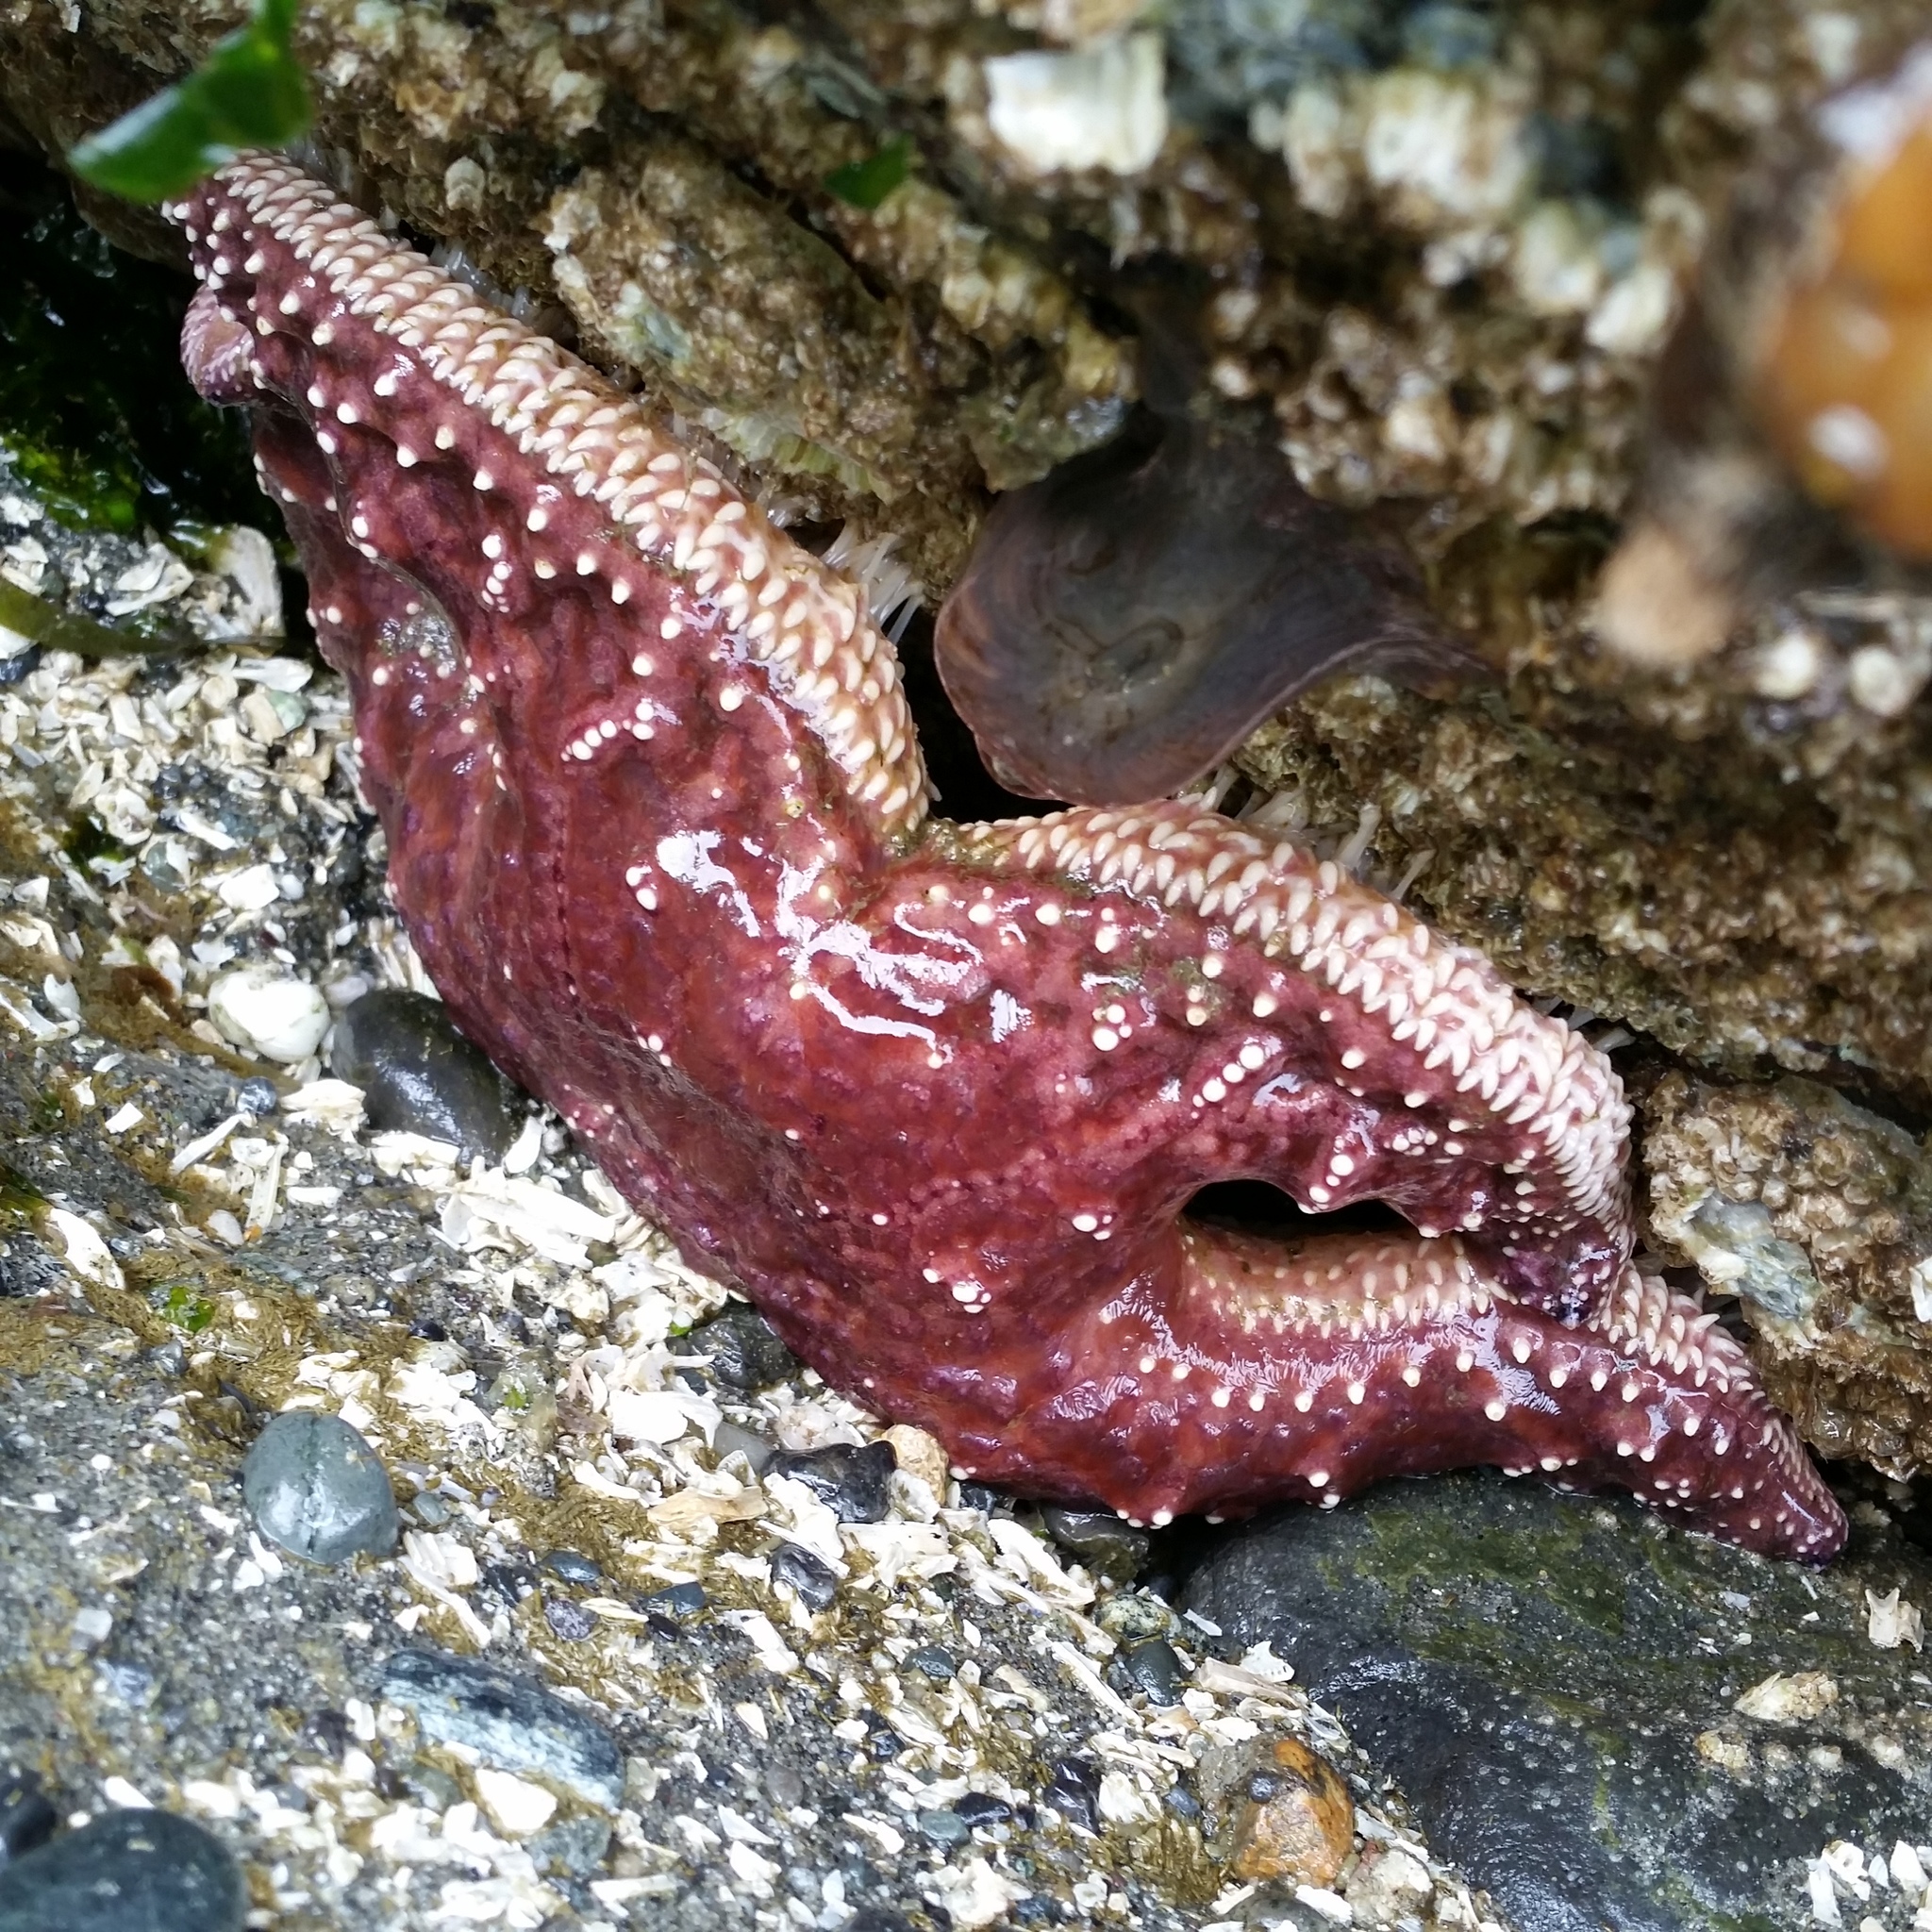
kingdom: Animalia
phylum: Echinodermata
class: Asteroidea
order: Forcipulatida
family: Asteriidae
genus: Pisaster
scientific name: Pisaster ochraceus
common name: Ochre stars
